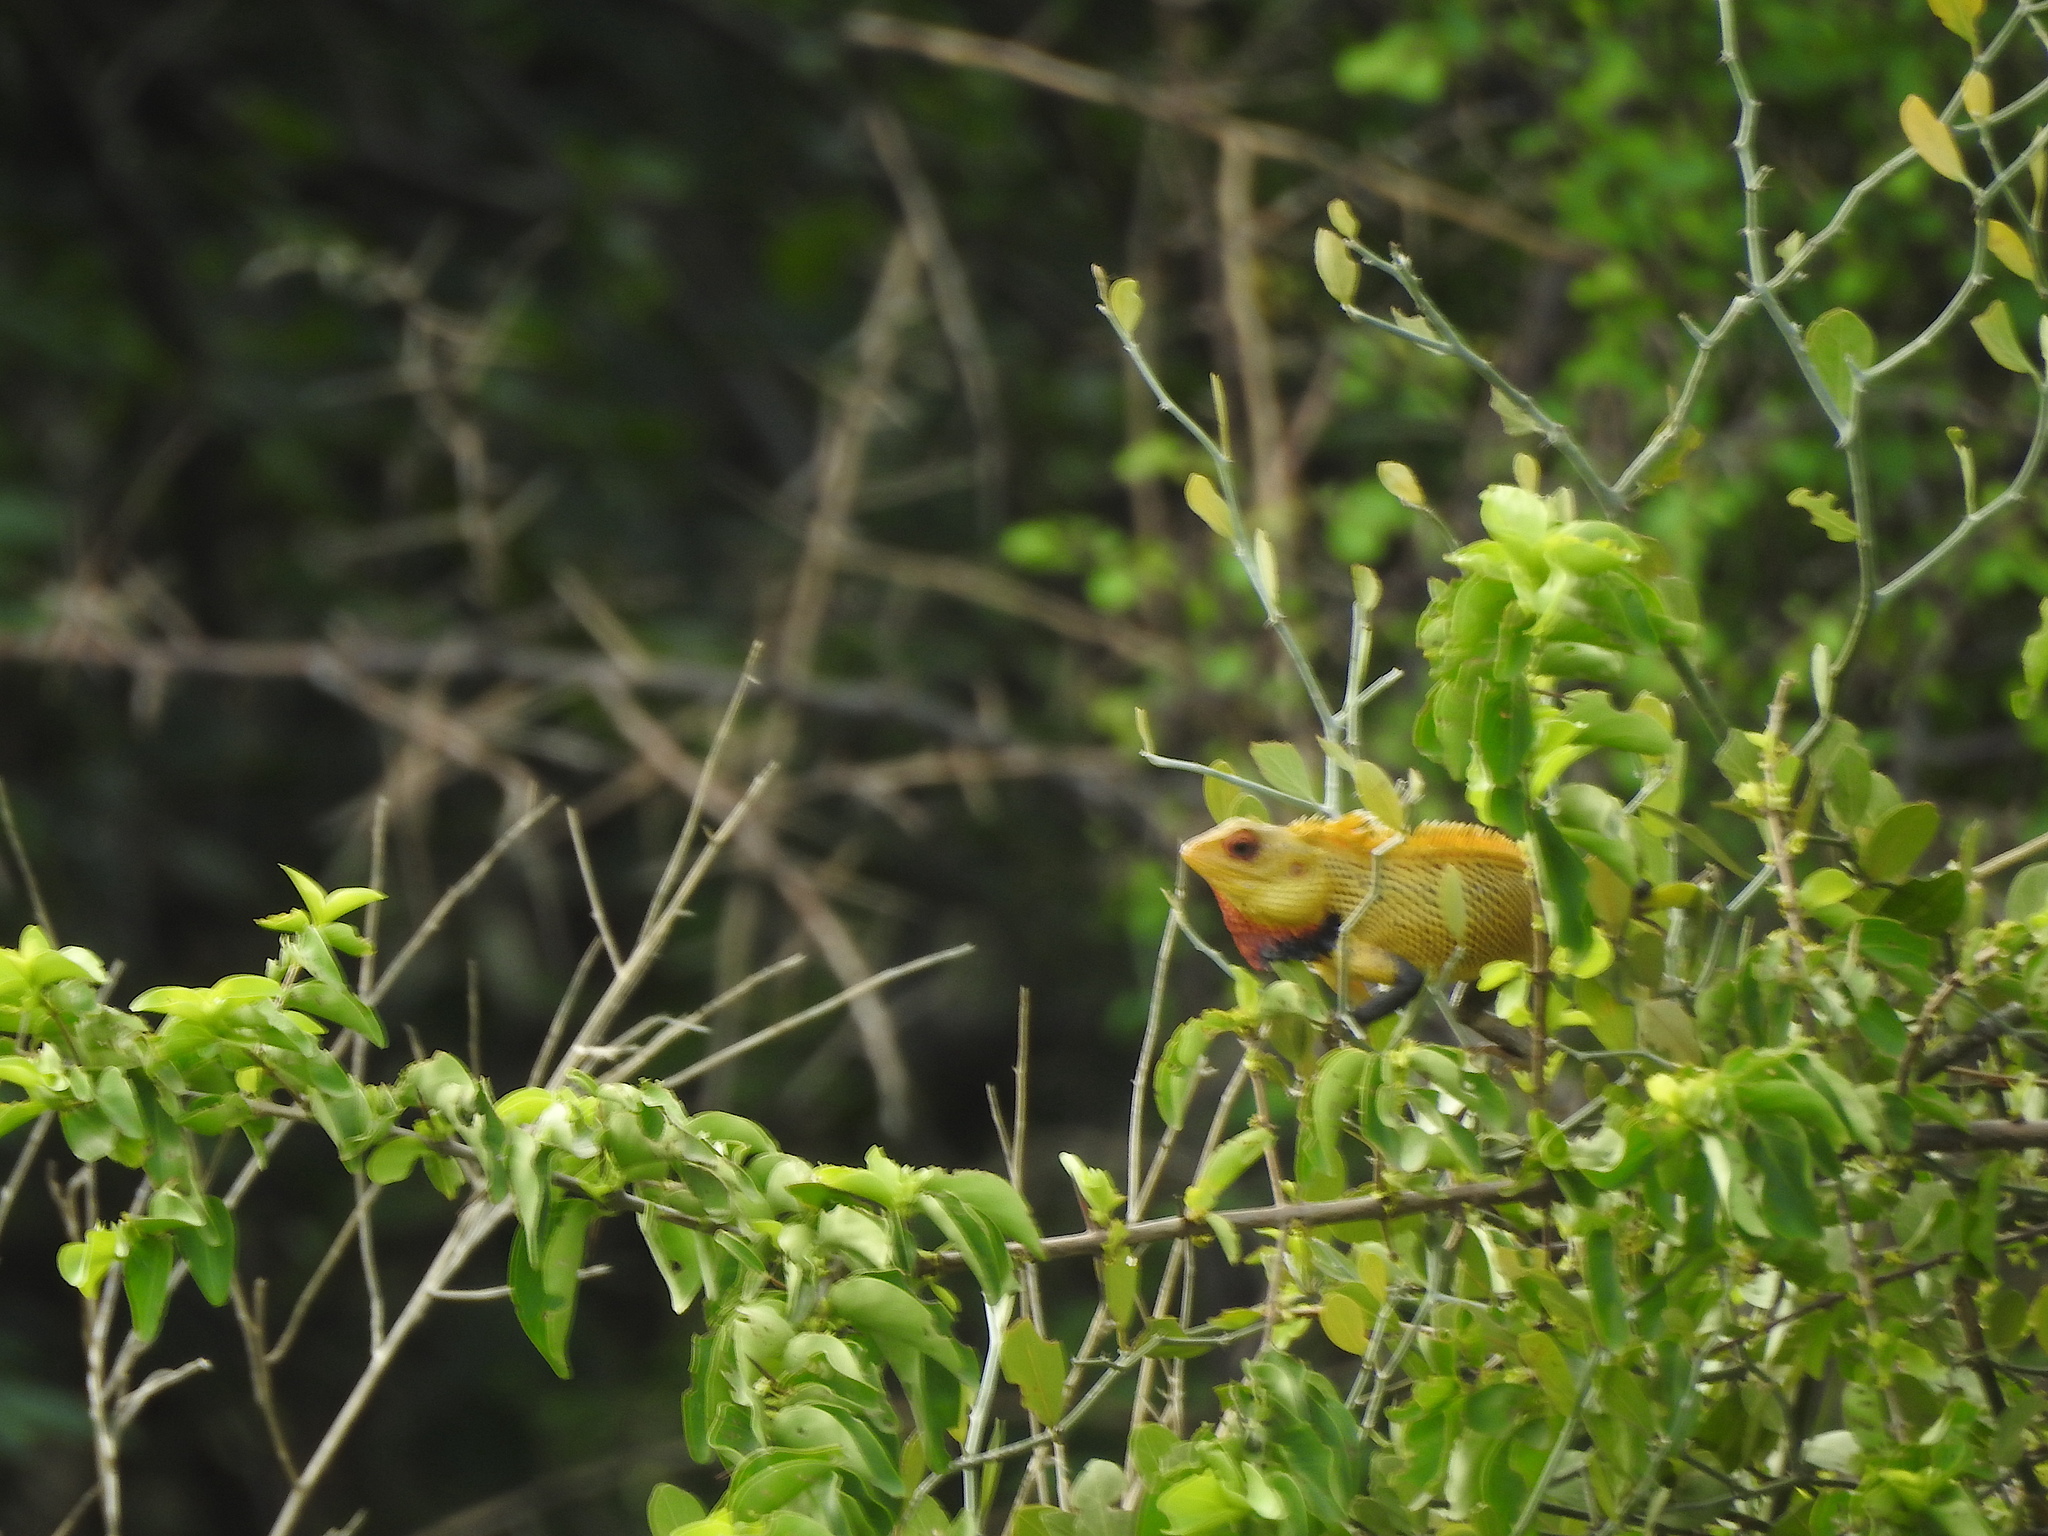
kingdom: Animalia
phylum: Chordata
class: Squamata
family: Agamidae
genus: Calotes
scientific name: Calotes versicolor
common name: Oriental garden lizard
